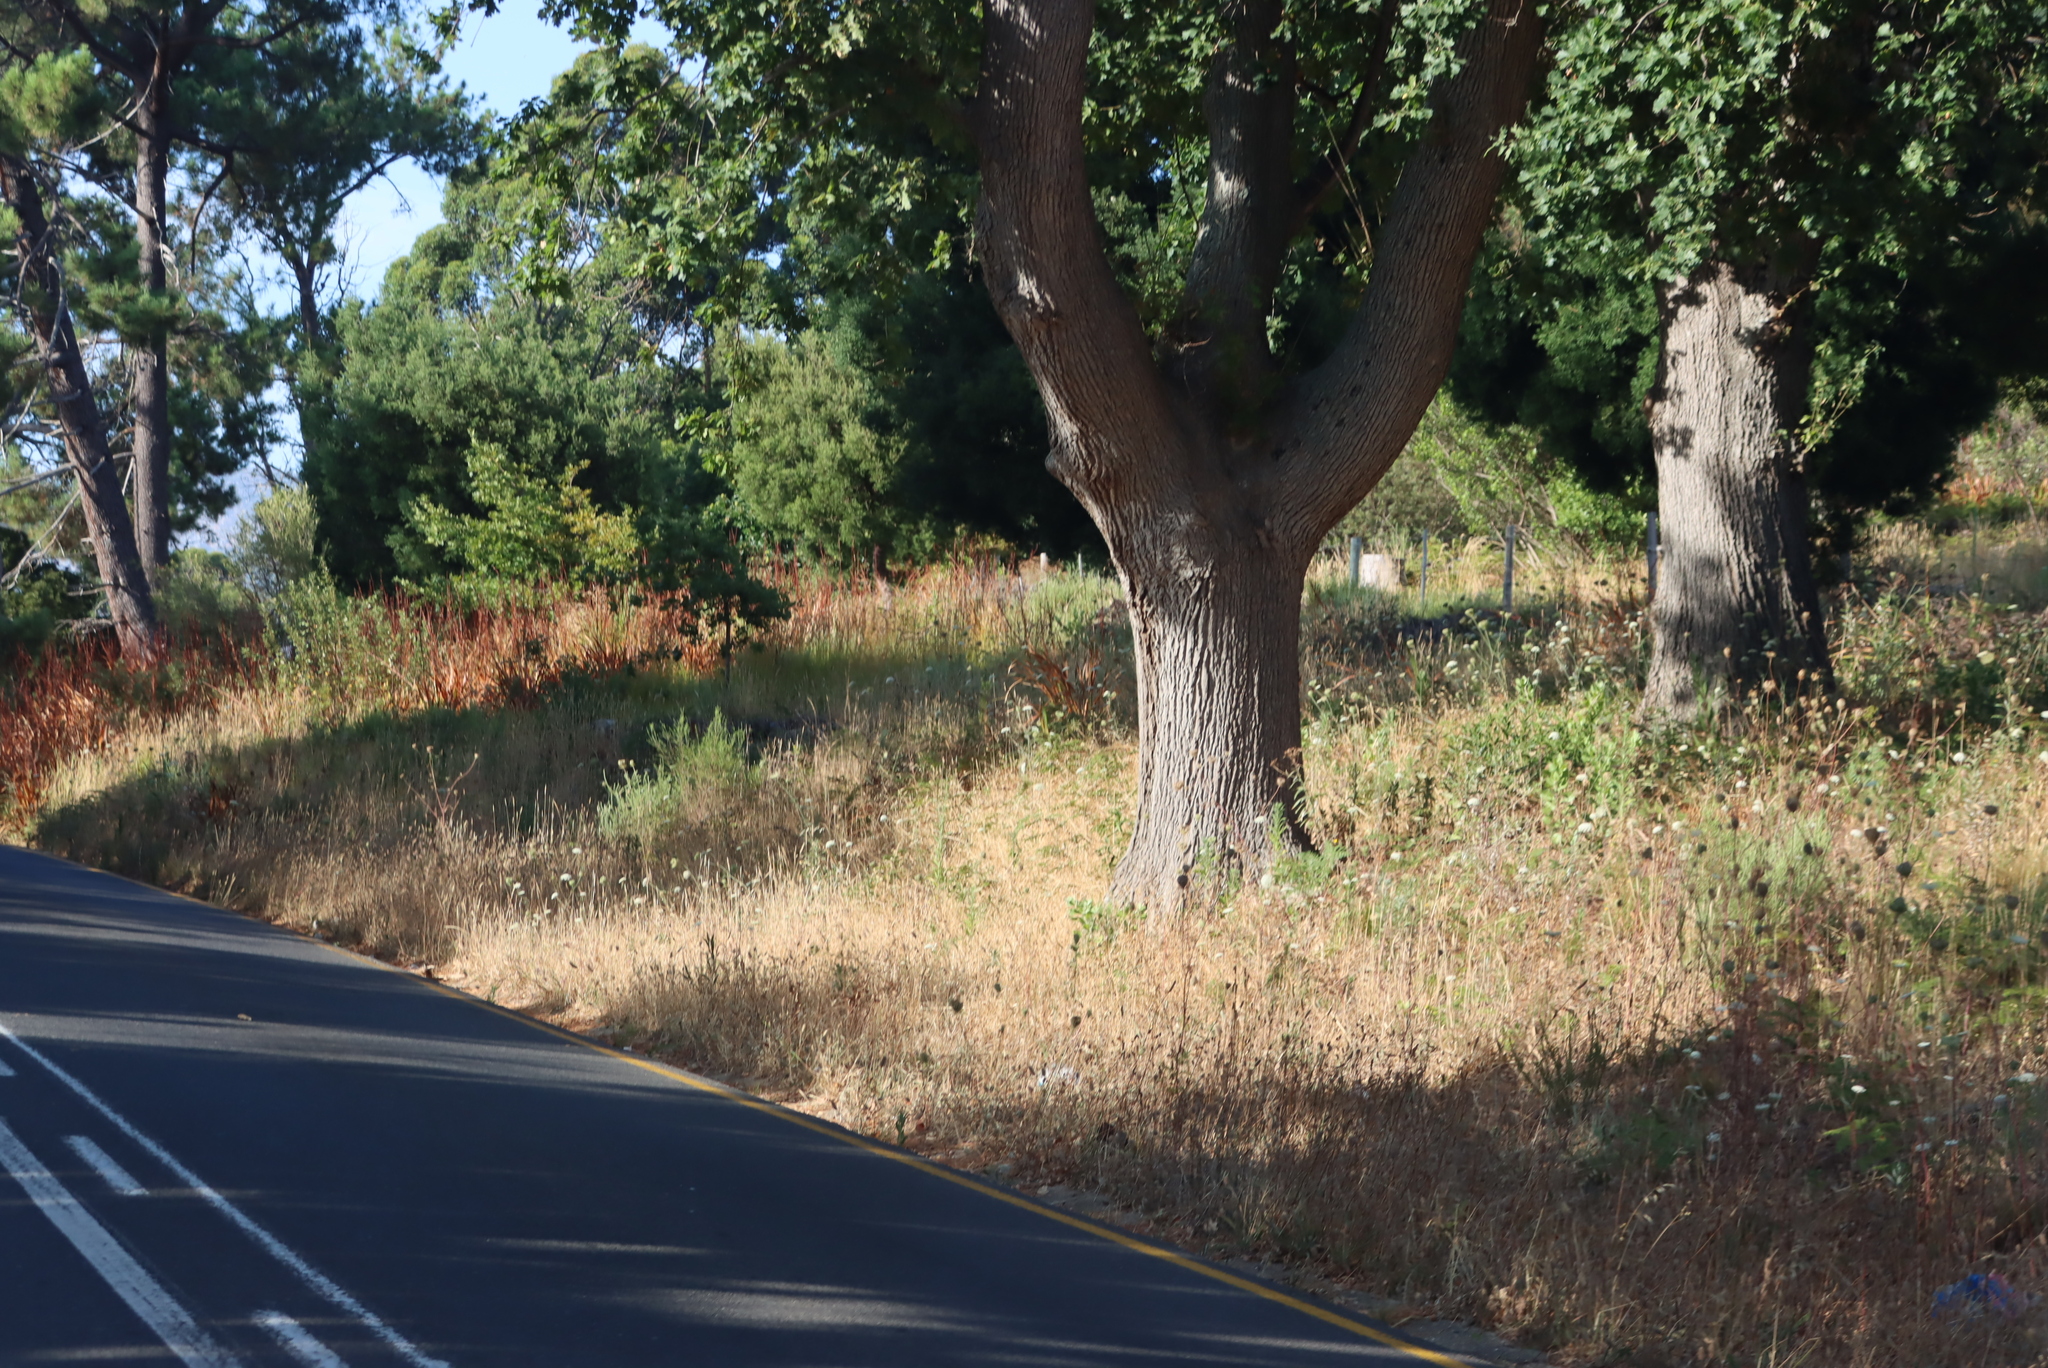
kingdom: Plantae
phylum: Tracheophyta
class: Magnoliopsida
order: Apiales
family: Apiaceae
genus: Daucus
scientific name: Daucus carota
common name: Wild carrot
